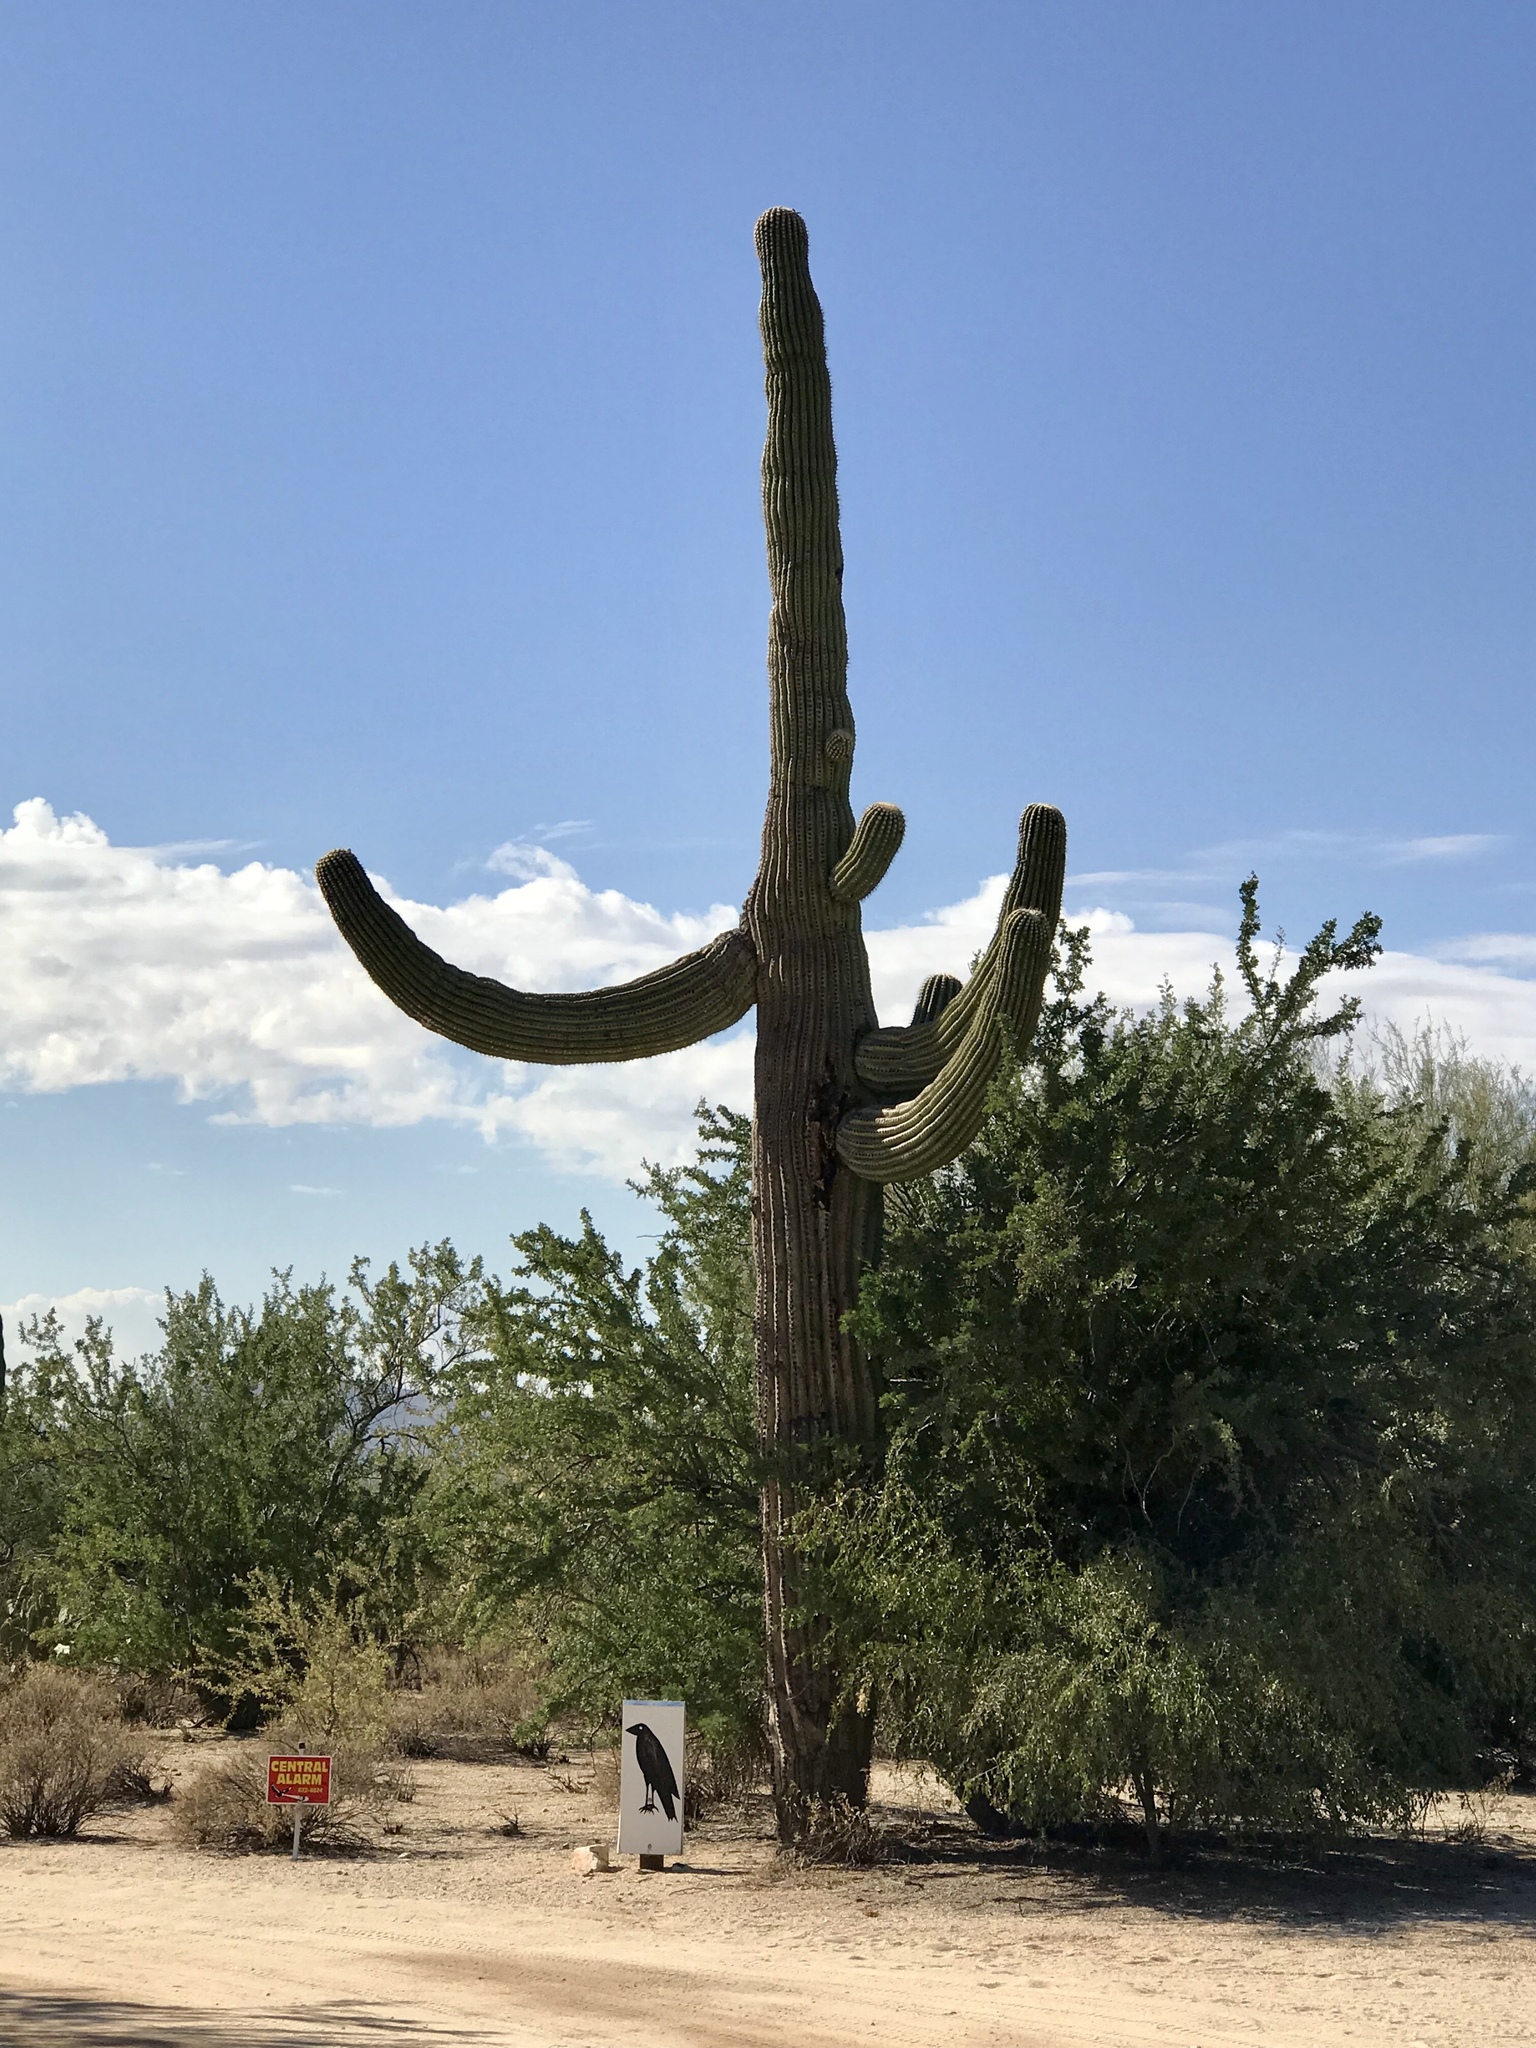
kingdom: Plantae
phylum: Tracheophyta
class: Magnoliopsida
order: Caryophyllales
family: Cactaceae
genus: Carnegiea
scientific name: Carnegiea gigantea
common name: Saguaro
